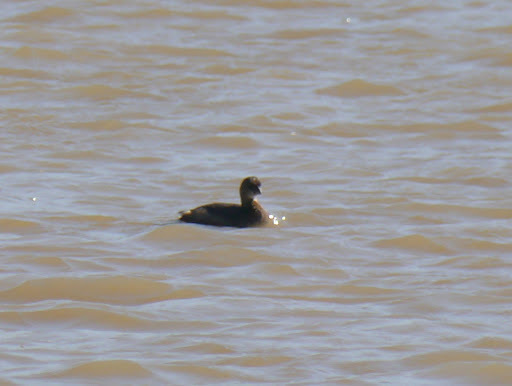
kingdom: Animalia
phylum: Chordata
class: Aves
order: Podicipediformes
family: Podicipedidae
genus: Podilymbus
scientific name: Podilymbus podiceps
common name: Pied-billed grebe
